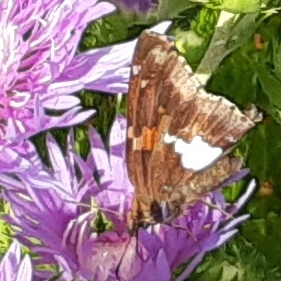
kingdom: Animalia
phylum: Arthropoda
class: Insecta
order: Lepidoptera
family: Hesperiidae
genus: Epargyreus
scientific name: Epargyreus clarus
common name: Silver-spotted skipper
